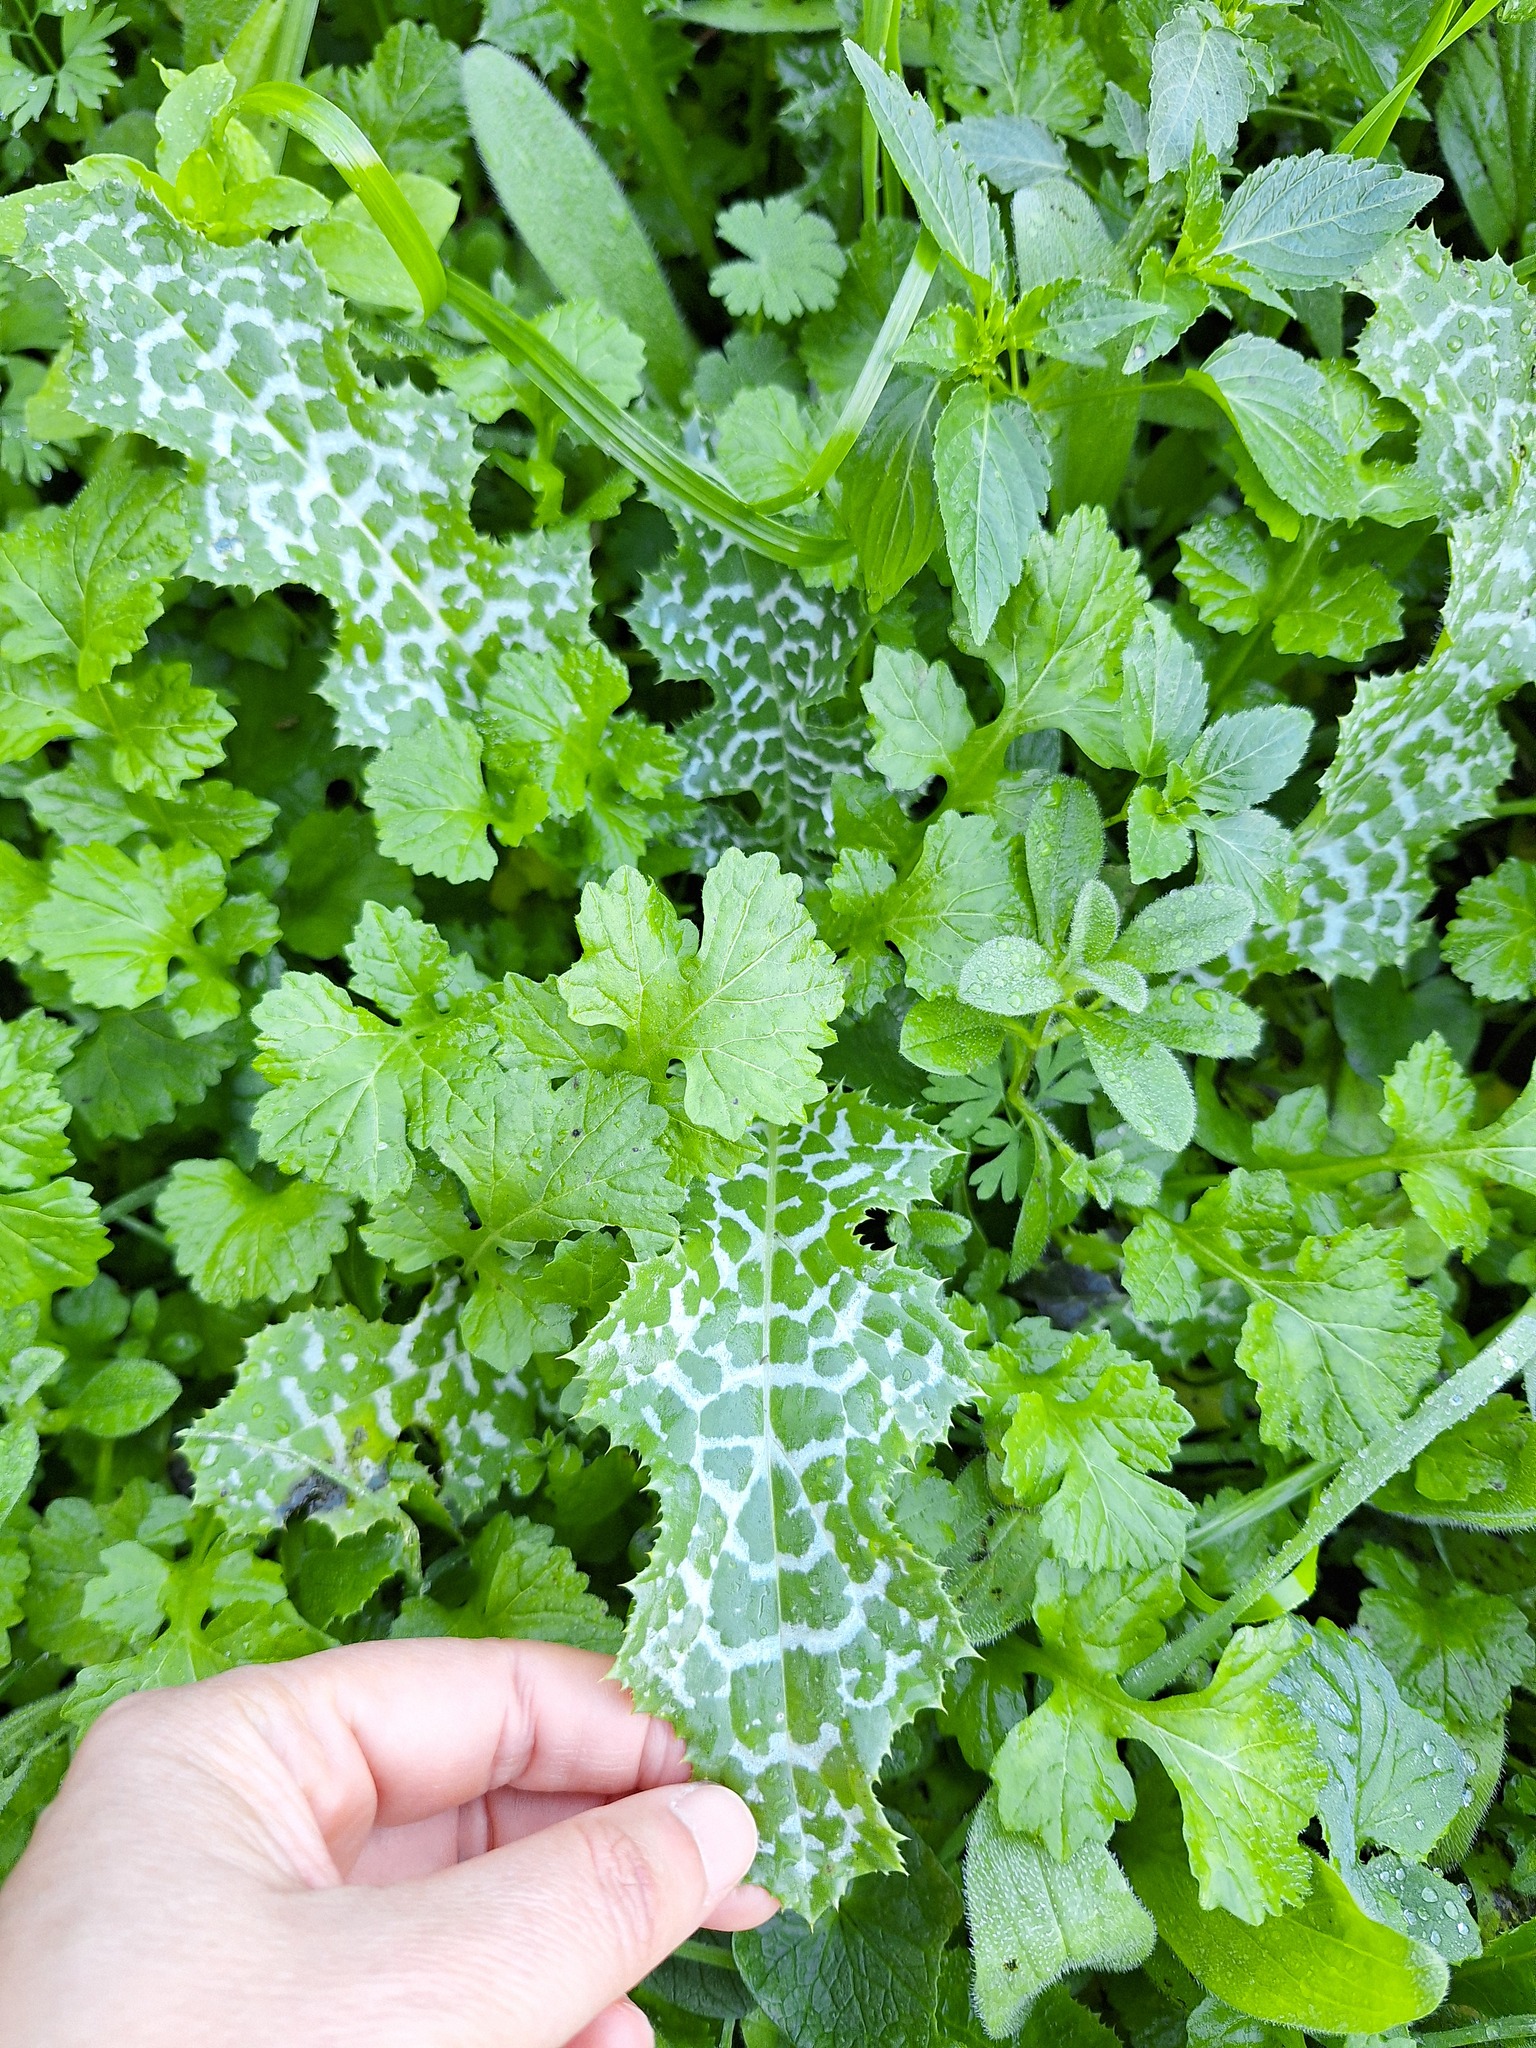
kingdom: Plantae
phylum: Tracheophyta
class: Magnoliopsida
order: Asterales
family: Asteraceae
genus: Silybum
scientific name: Silybum marianum
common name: Milk thistle
